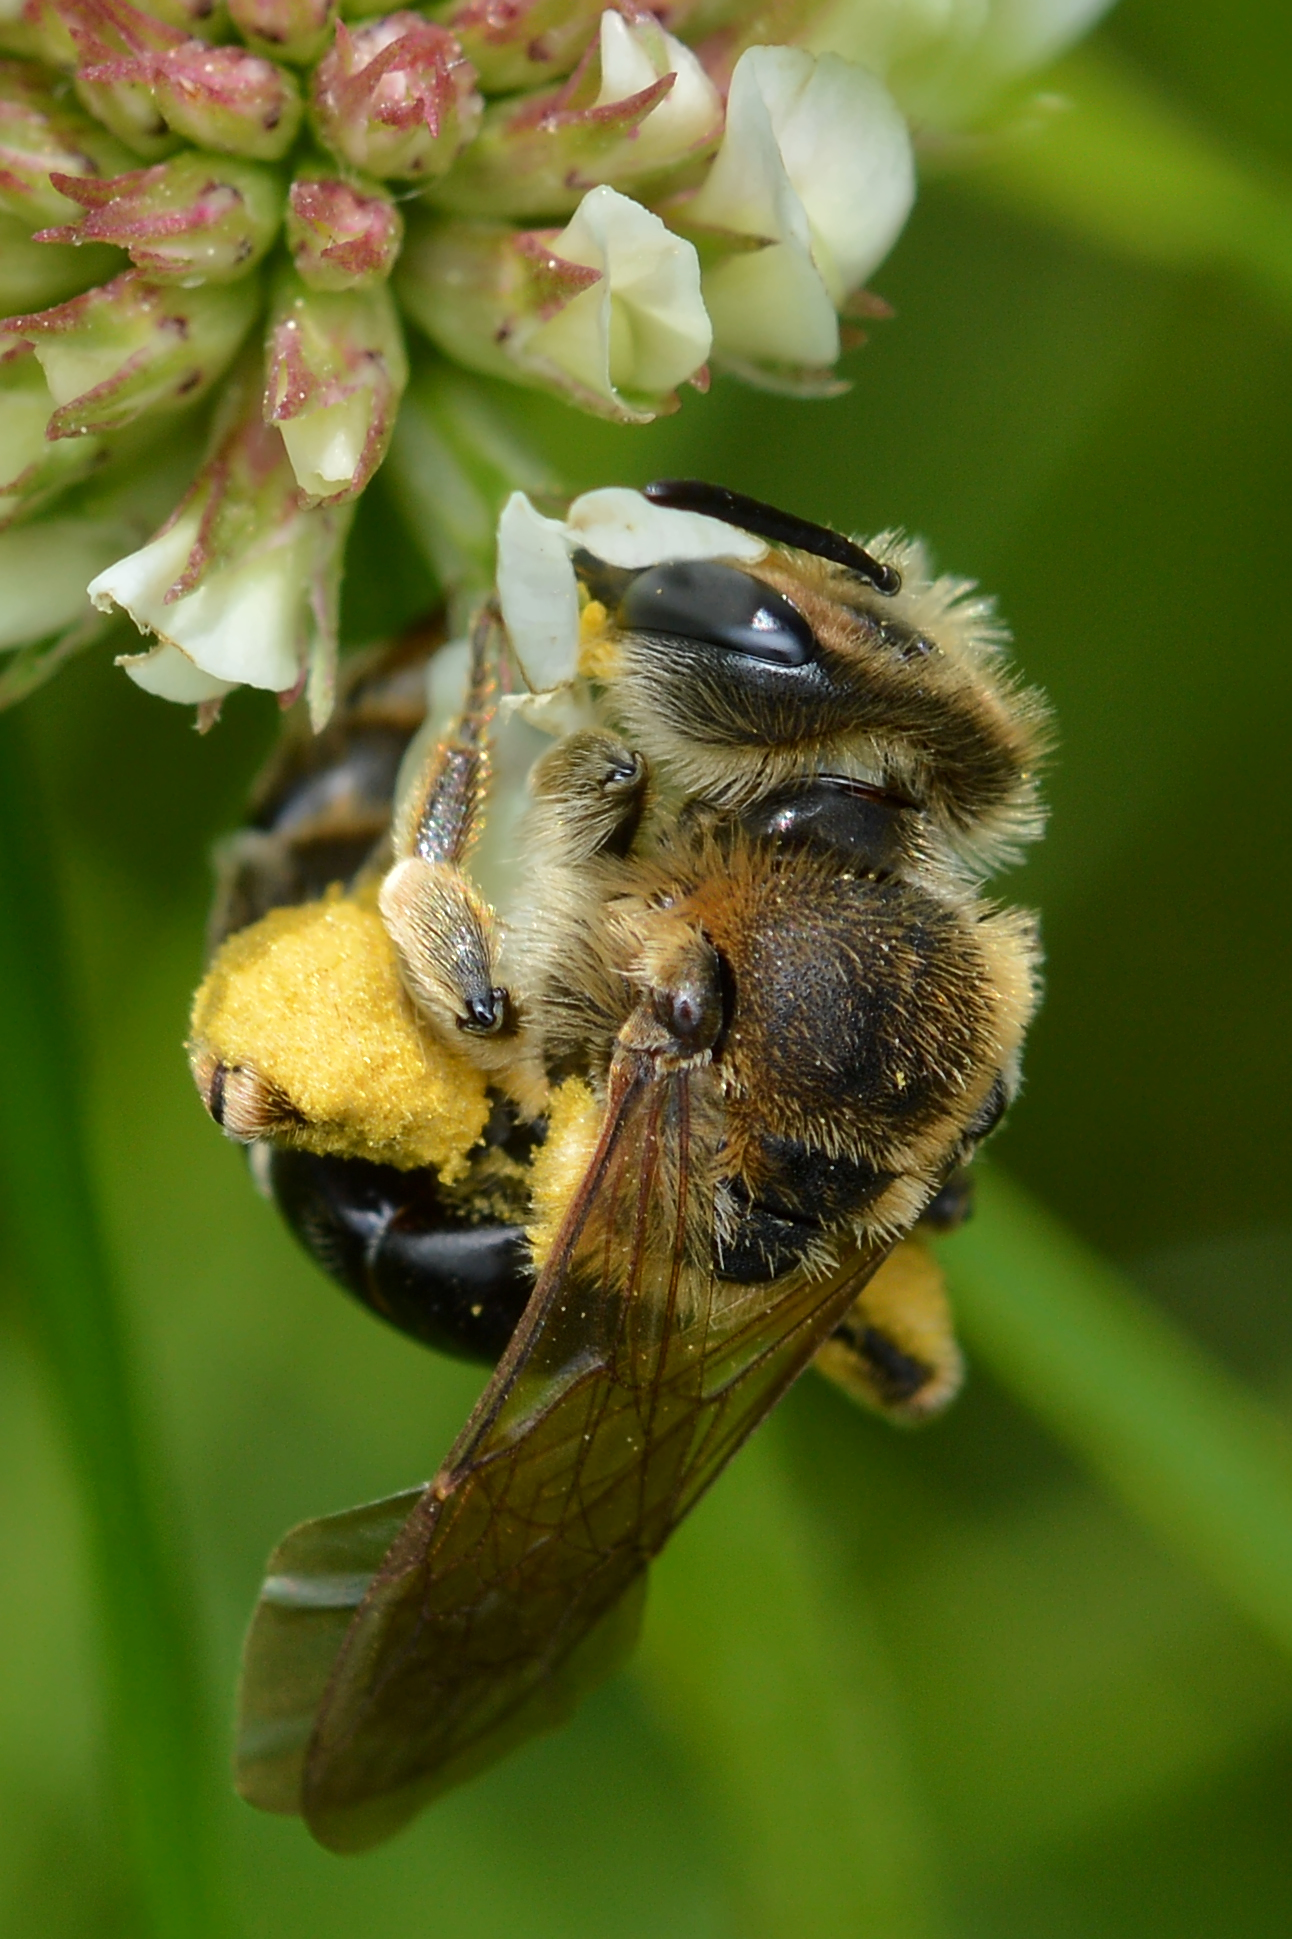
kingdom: Animalia
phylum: Arthropoda
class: Insecta
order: Hymenoptera
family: Andrenidae
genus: Andrena
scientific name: Andrena wilkella
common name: Wilke's mining bee
